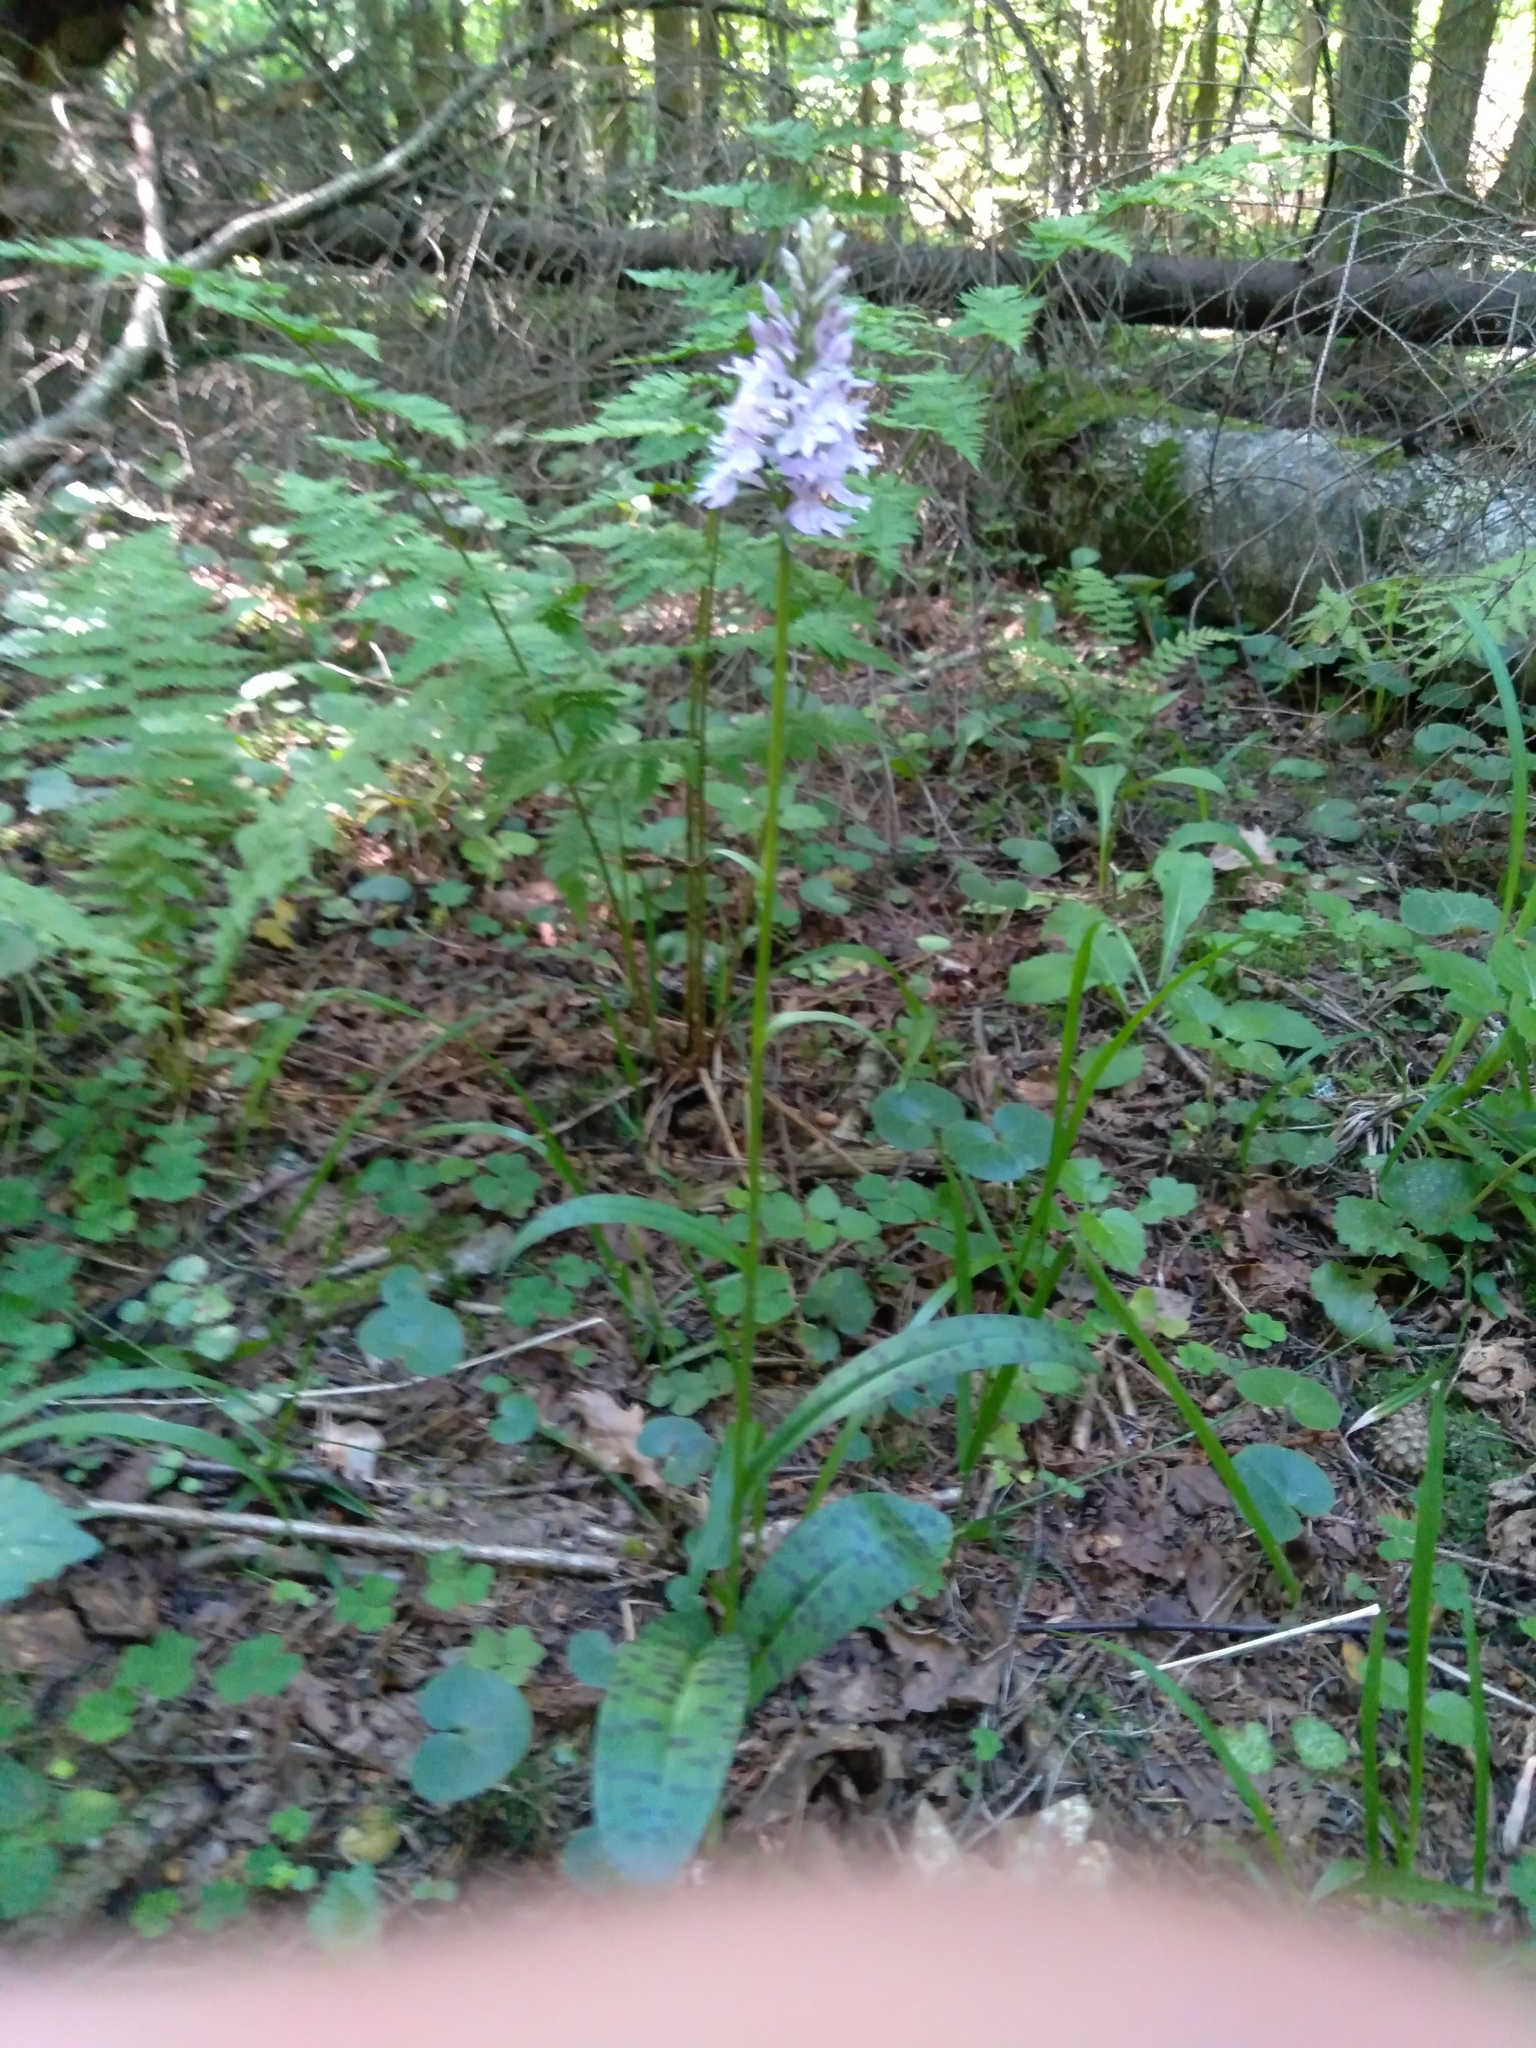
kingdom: Plantae
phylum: Tracheophyta
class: Liliopsida
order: Asparagales
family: Orchidaceae
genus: Dactylorhiza
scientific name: Dactylorhiza maculata
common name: Heath spotted-orchid
